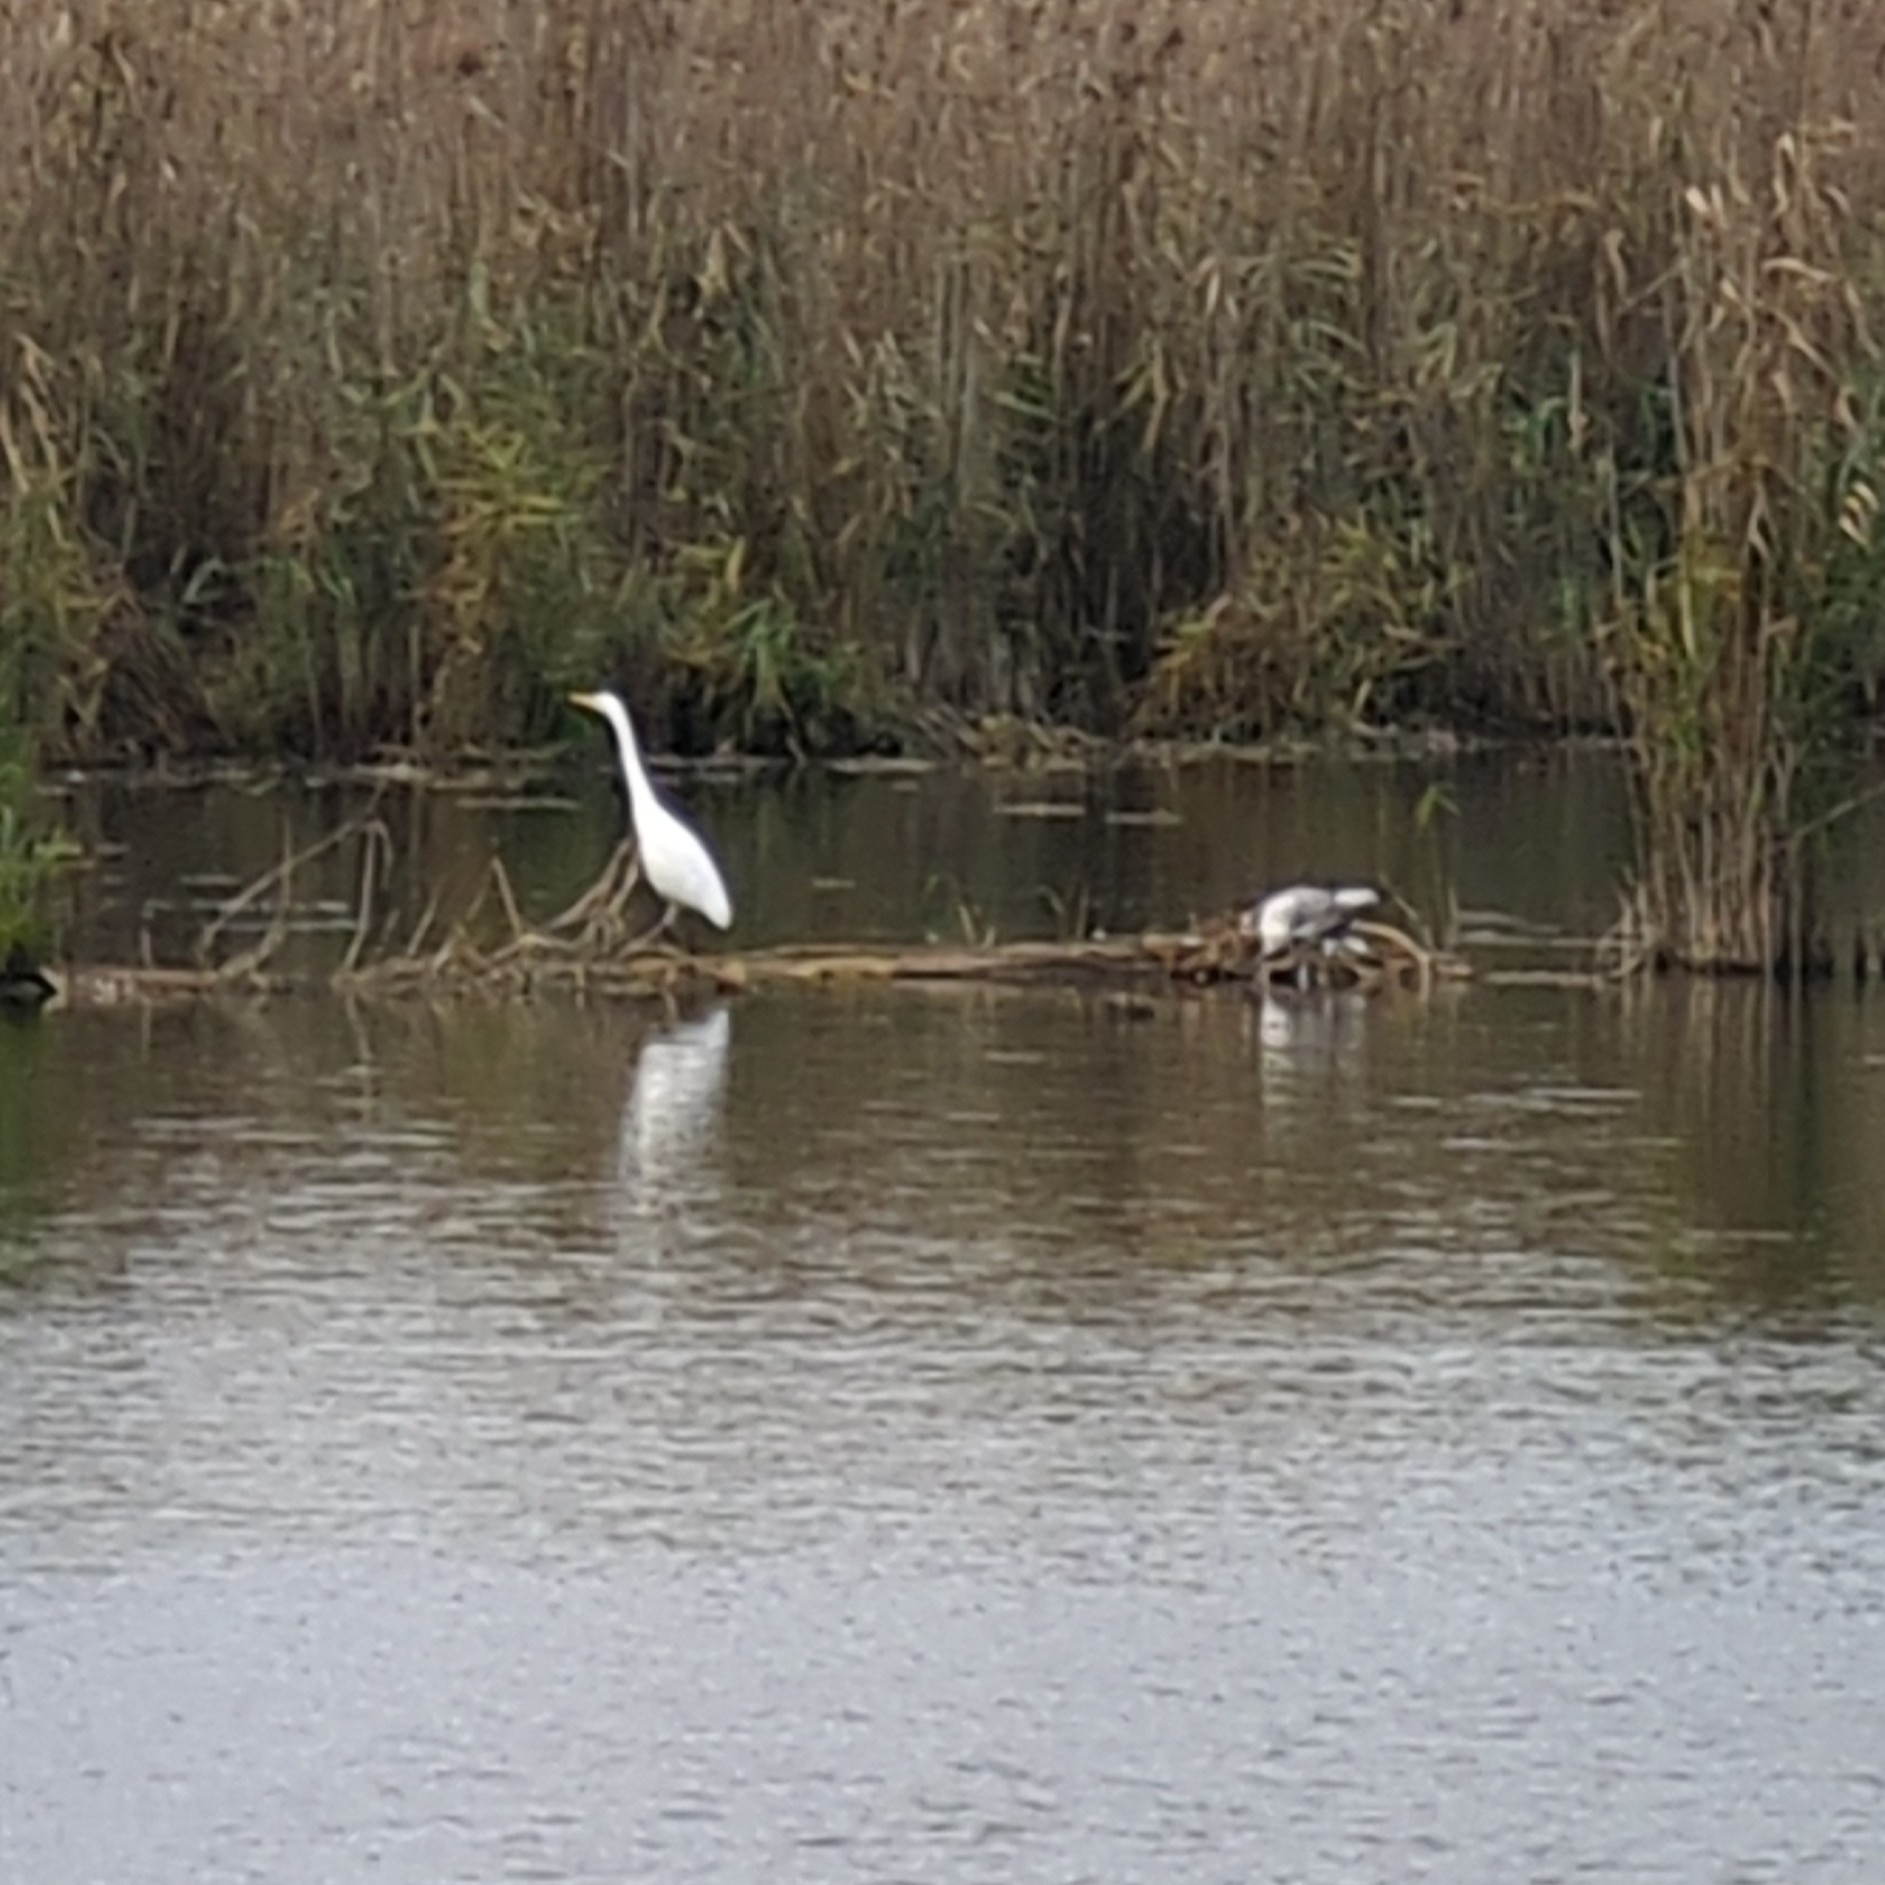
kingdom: Animalia
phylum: Chordata
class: Aves
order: Pelecaniformes
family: Ardeidae
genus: Ardea
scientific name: Ardea alba
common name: Great egret
